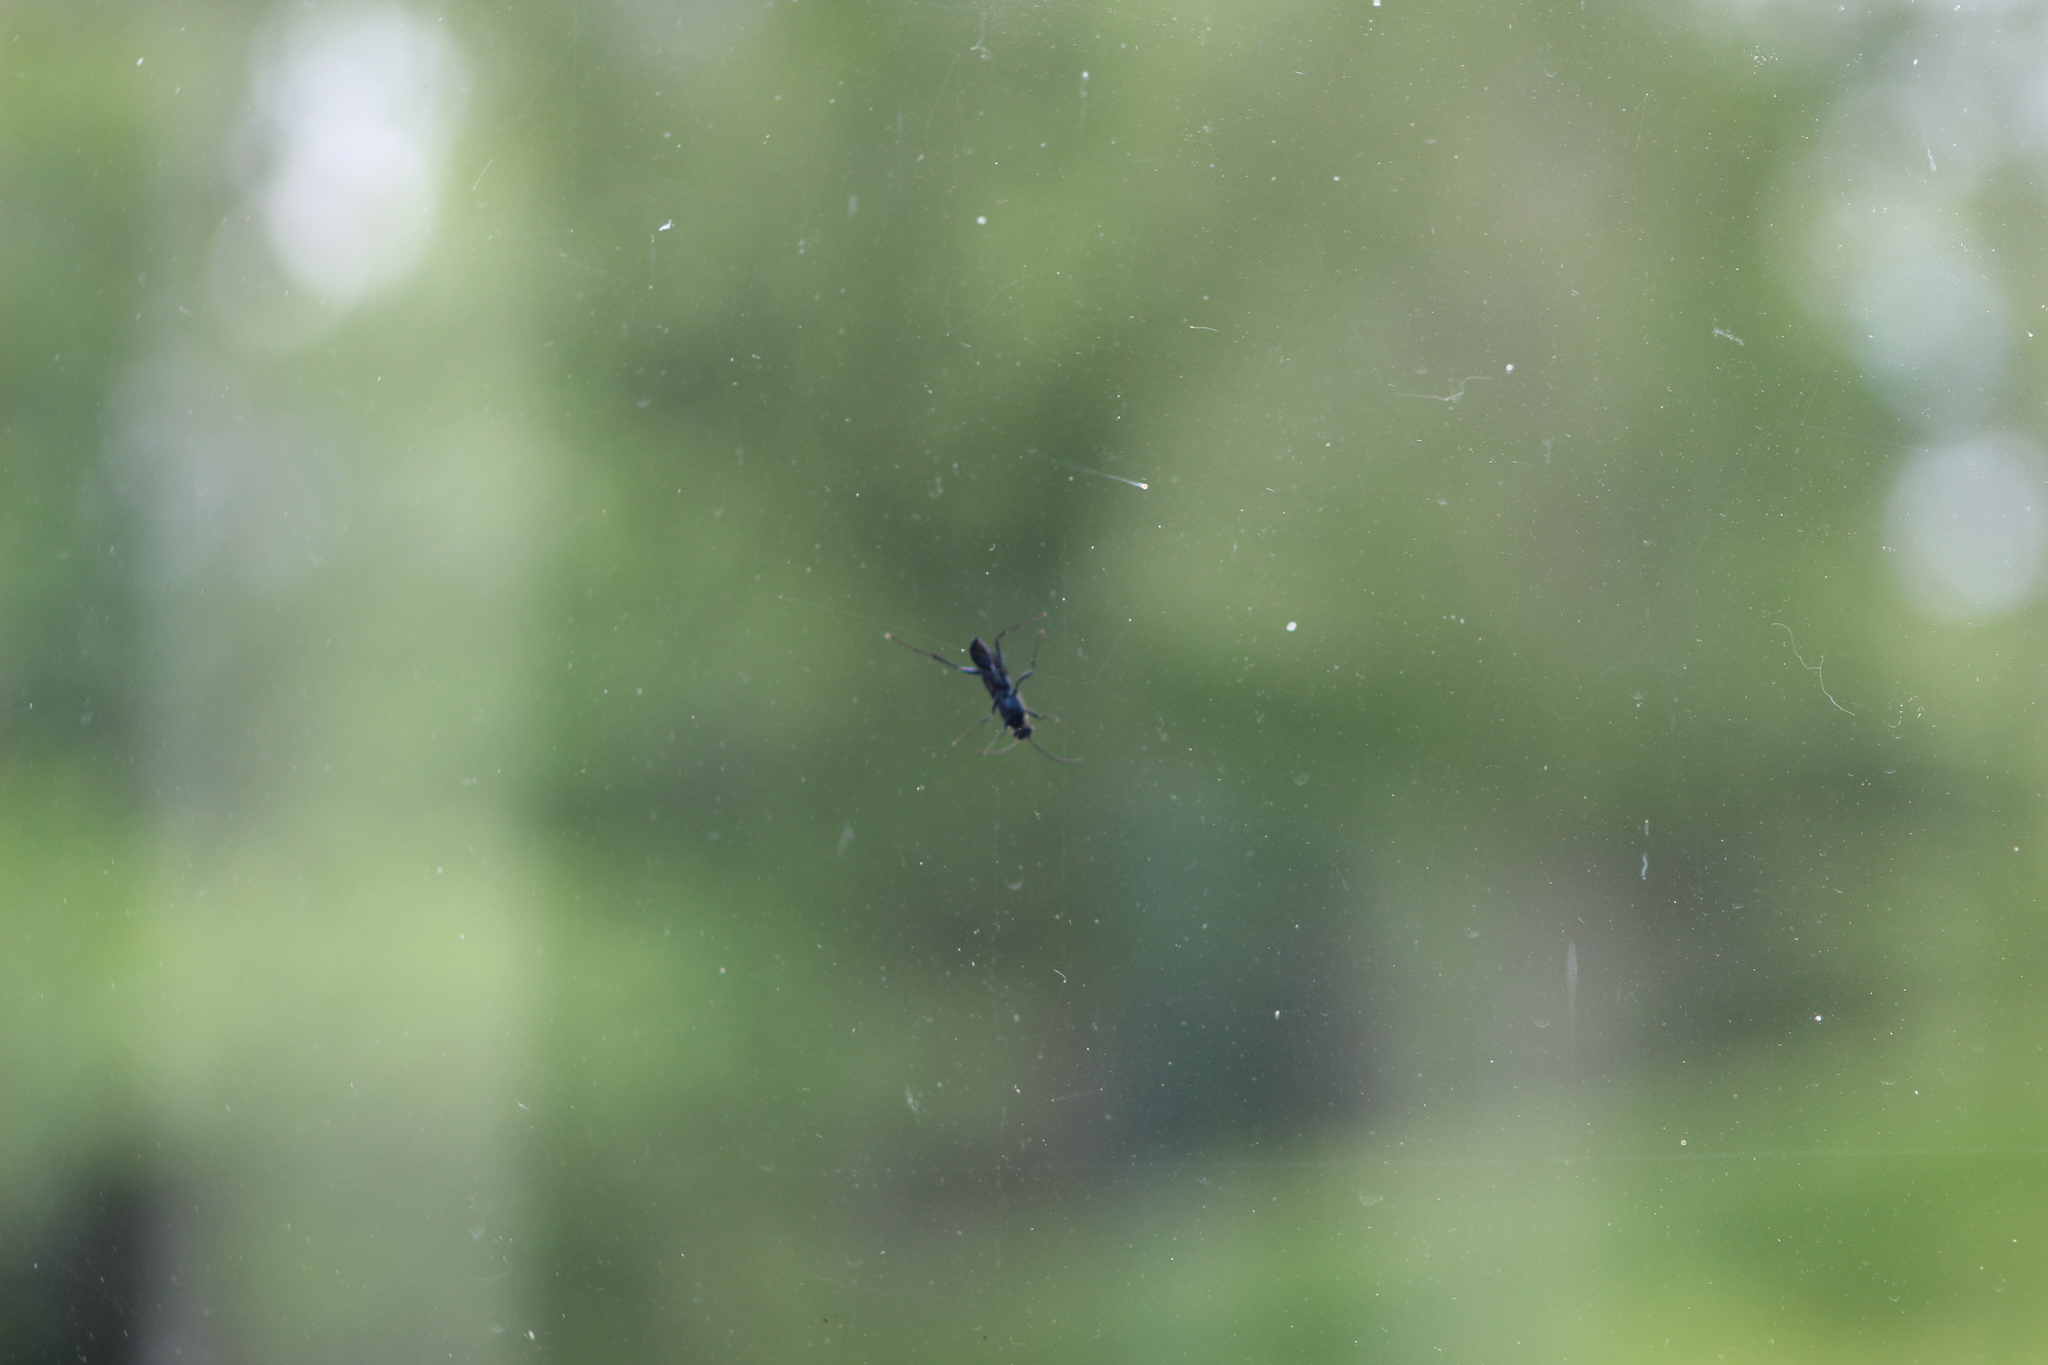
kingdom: Animalia
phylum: Arthropoda
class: Insecta
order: Hymenoptera
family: Sphecidae
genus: Chalybion
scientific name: Chalybion californicum
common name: Mud dauber
